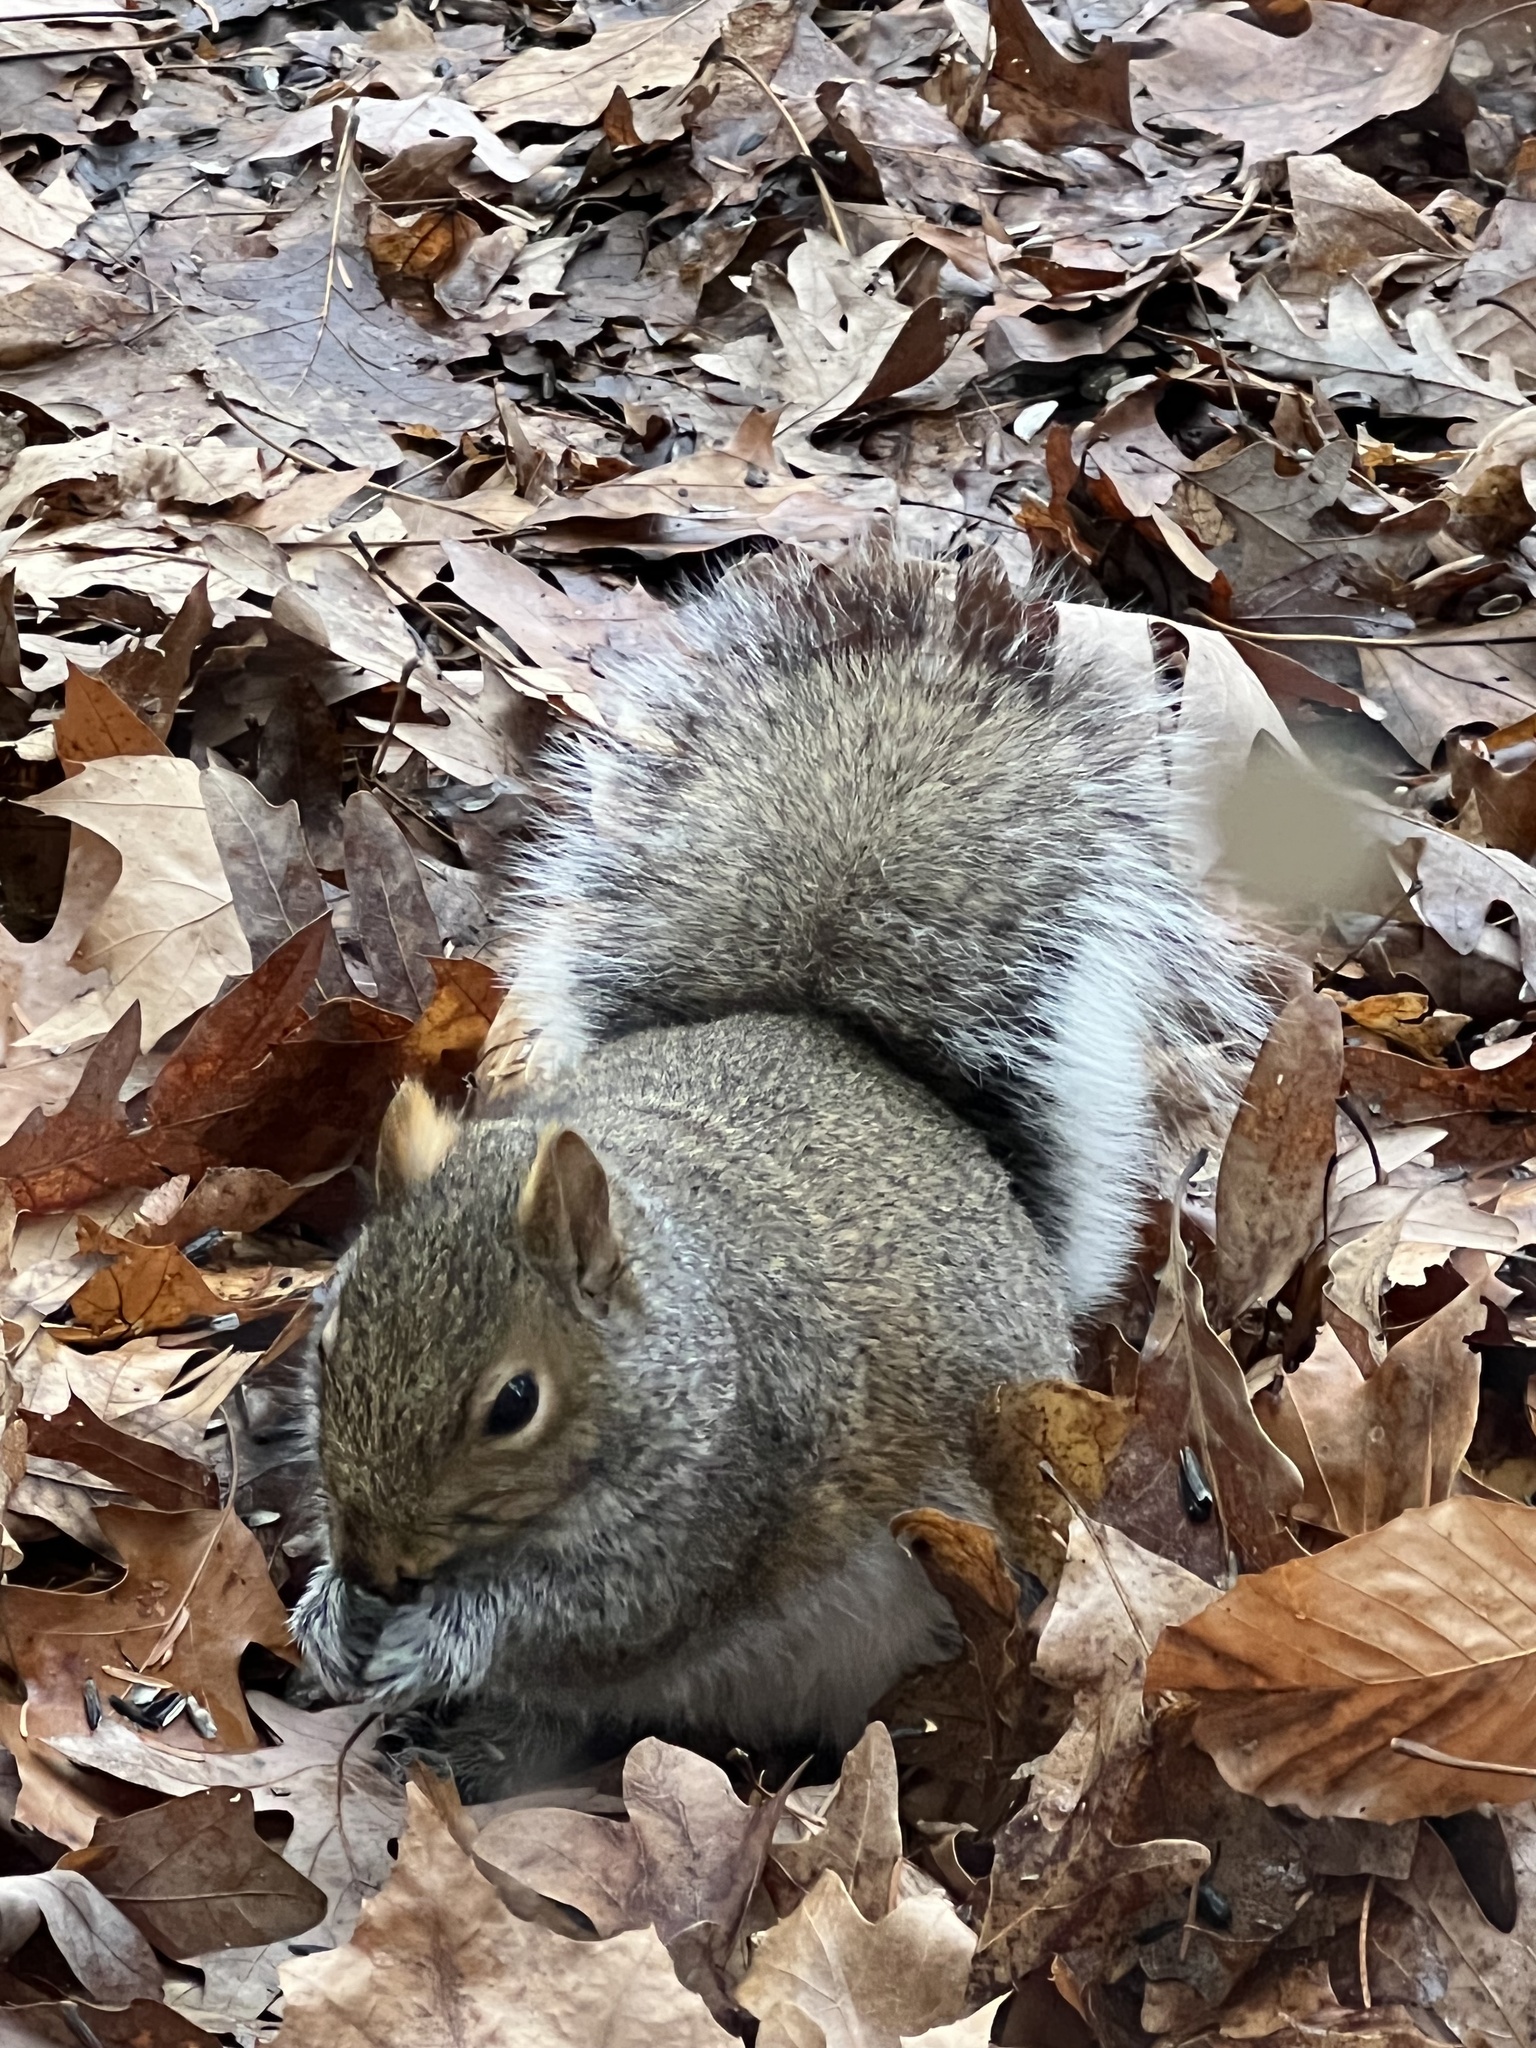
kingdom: Animalia
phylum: Chordata
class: Mammalia
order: Rodentia
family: Sciuridae
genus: Sciurus
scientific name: Sciurus carolinensis
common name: Eastern gray squirrel
